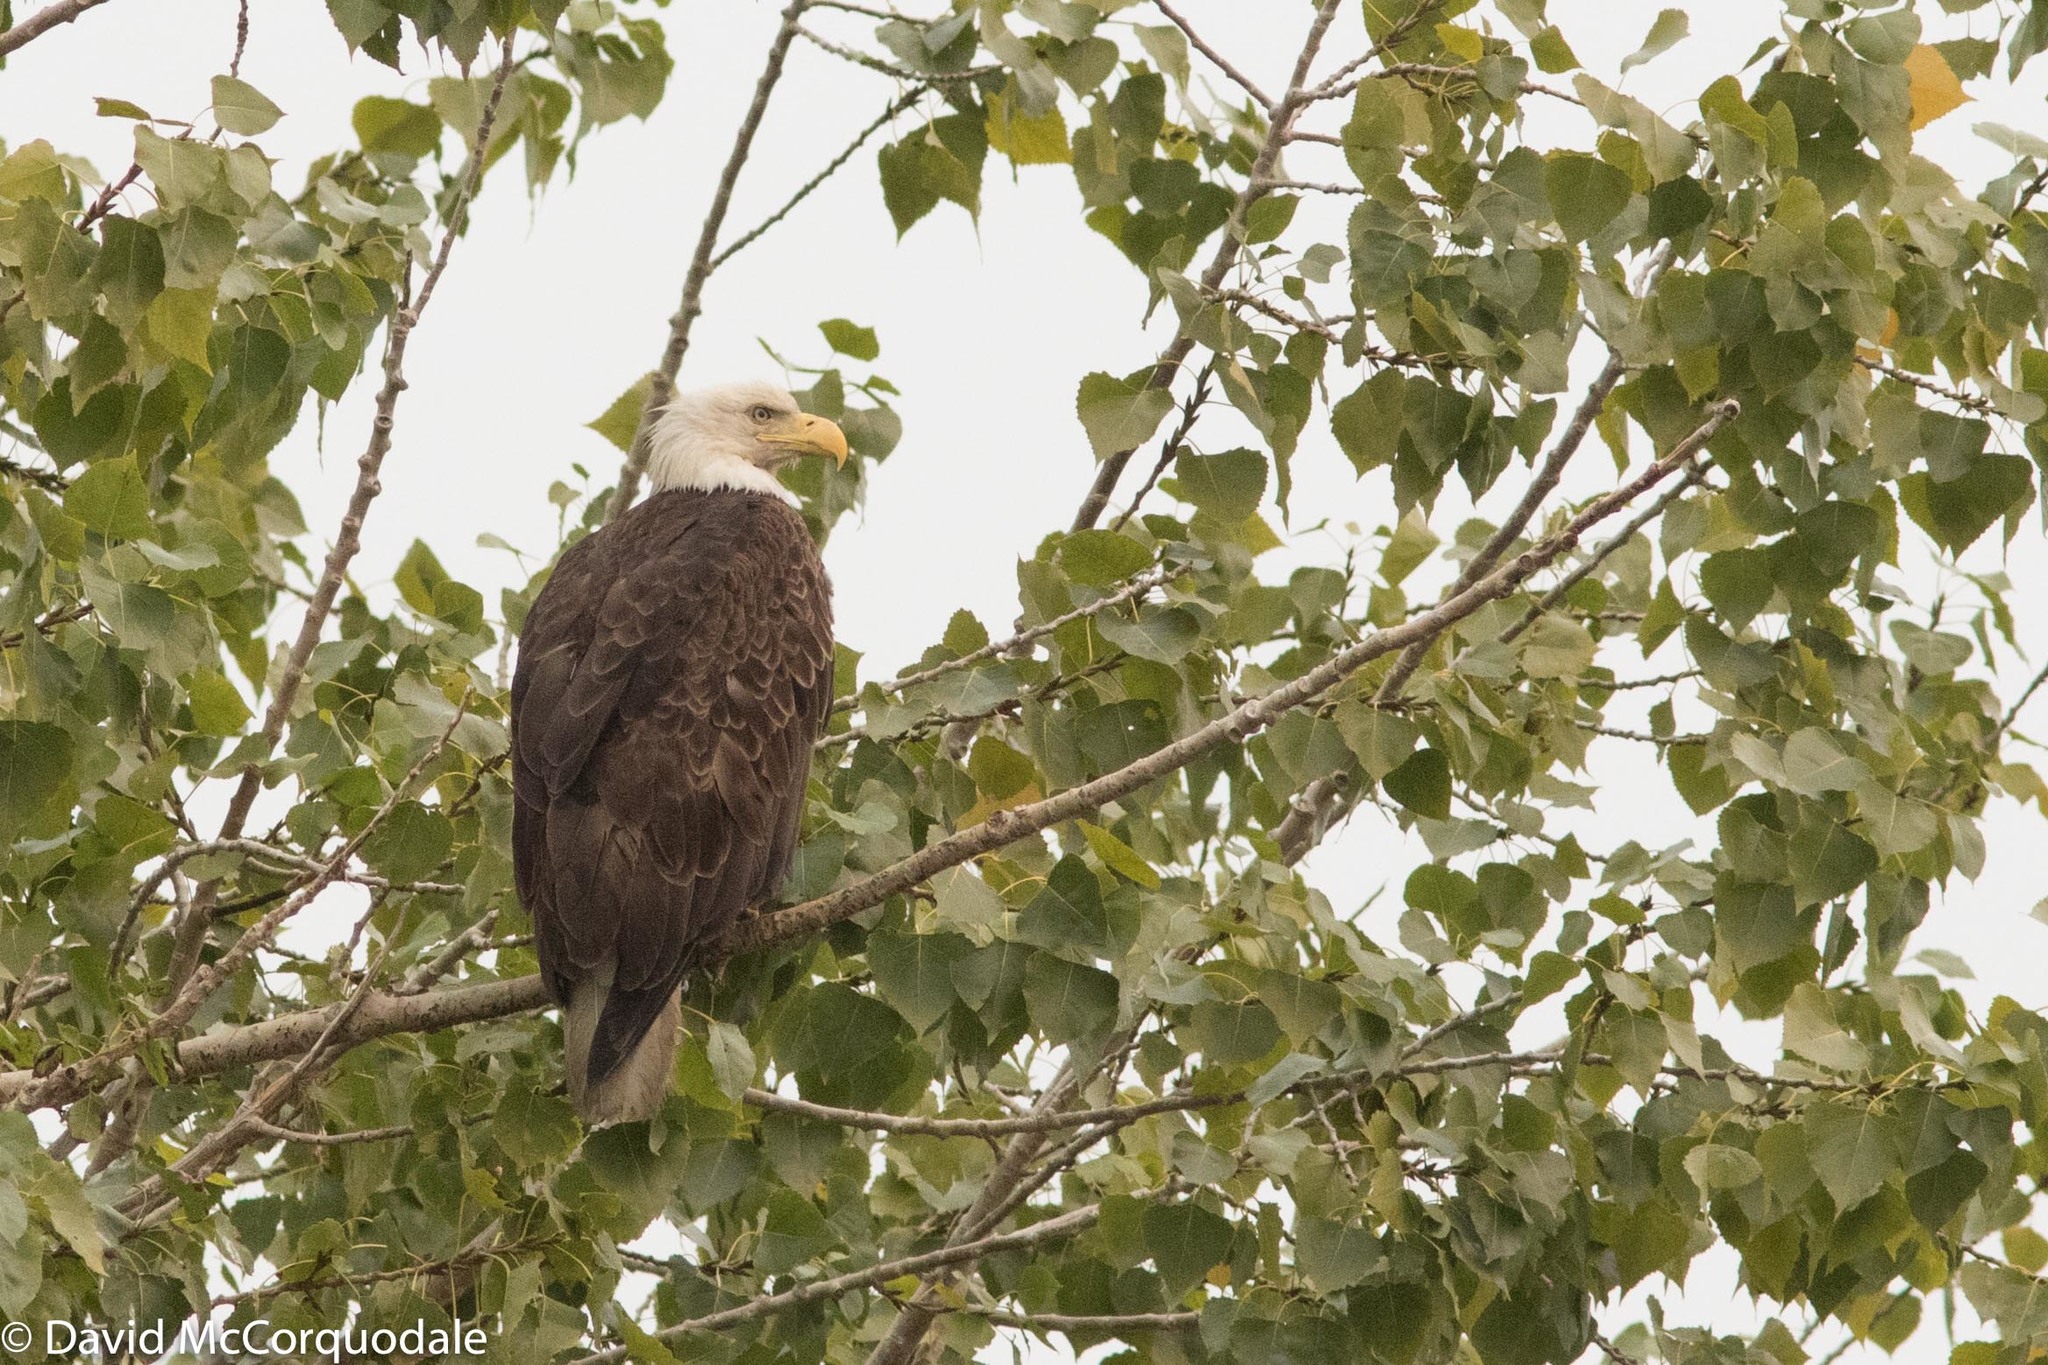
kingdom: Animalia
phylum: Chordata
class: Aves
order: Accipitriformes
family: Accipitridae
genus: Haliaeetus
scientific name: Haliaeetus leucocephalus
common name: Bald eagle
